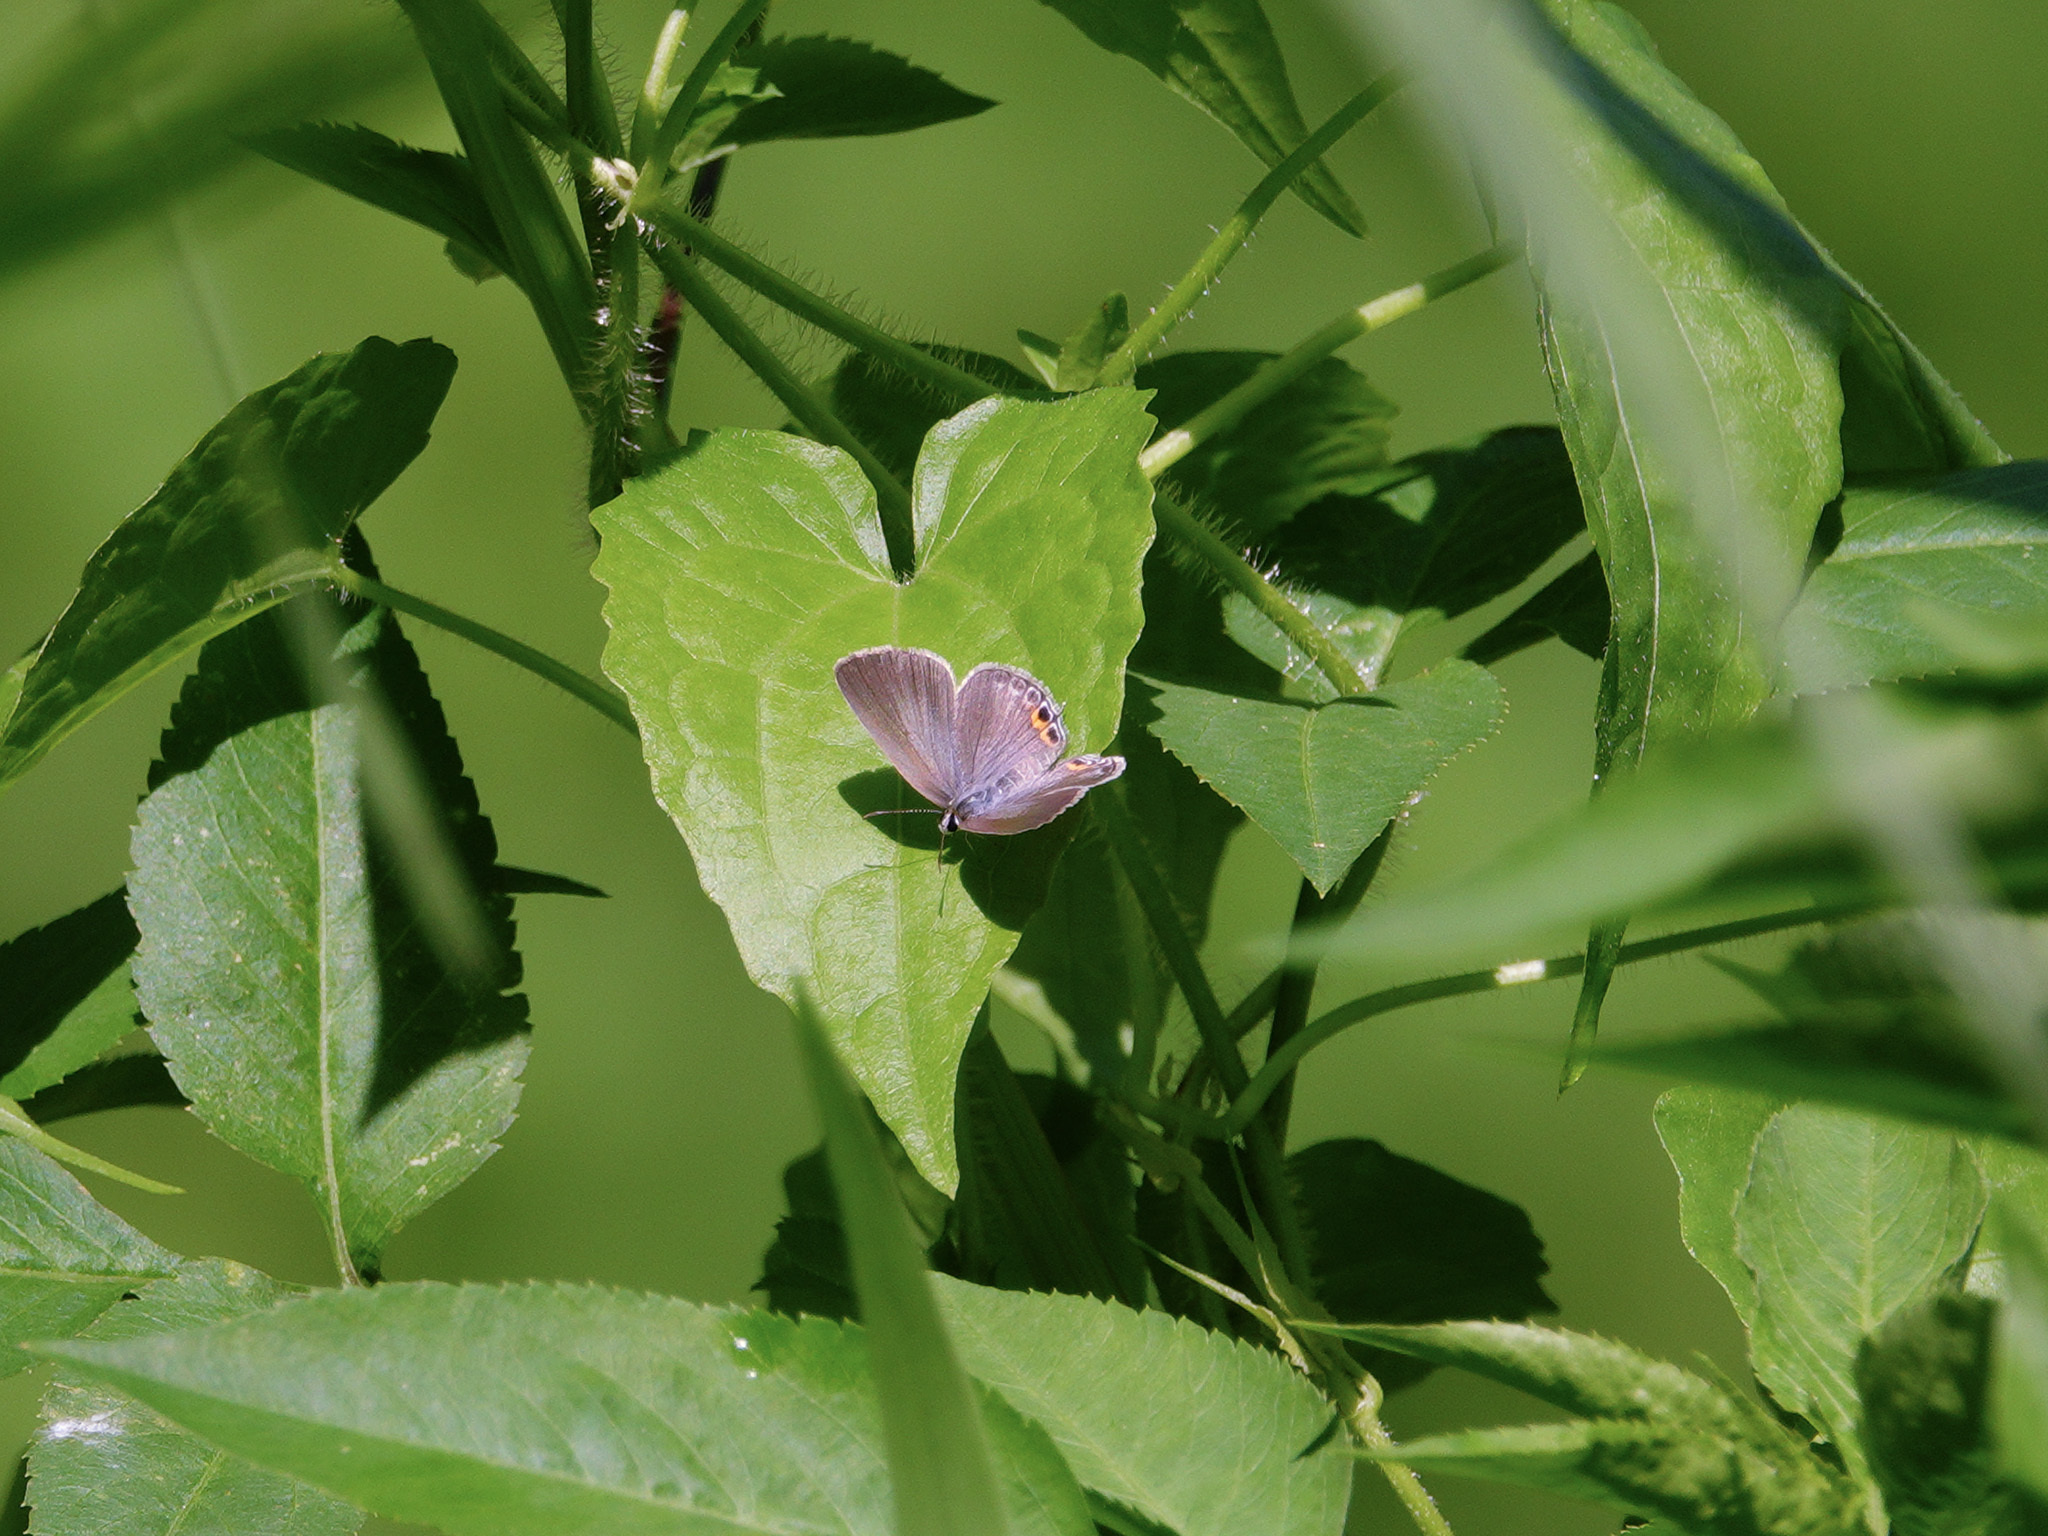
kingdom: Animalia
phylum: Arthropoda
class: Insecta
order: Lepidoptera
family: Lycaenidae
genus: Euchrysops
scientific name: Euchrysops cnejus
